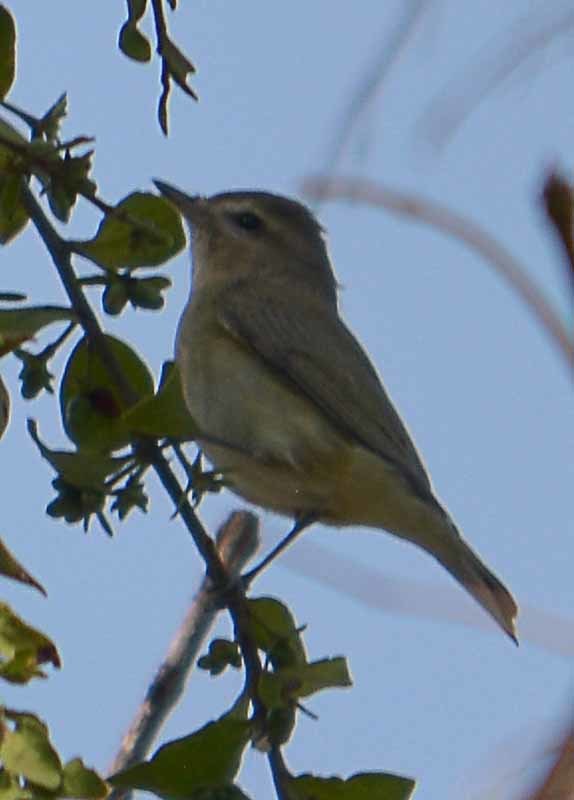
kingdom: Animalia
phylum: Chordata
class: Aves
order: Passeriformes
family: Vireonidae
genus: Vireo
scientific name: Vireo gilvus
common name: Warbling vireo
